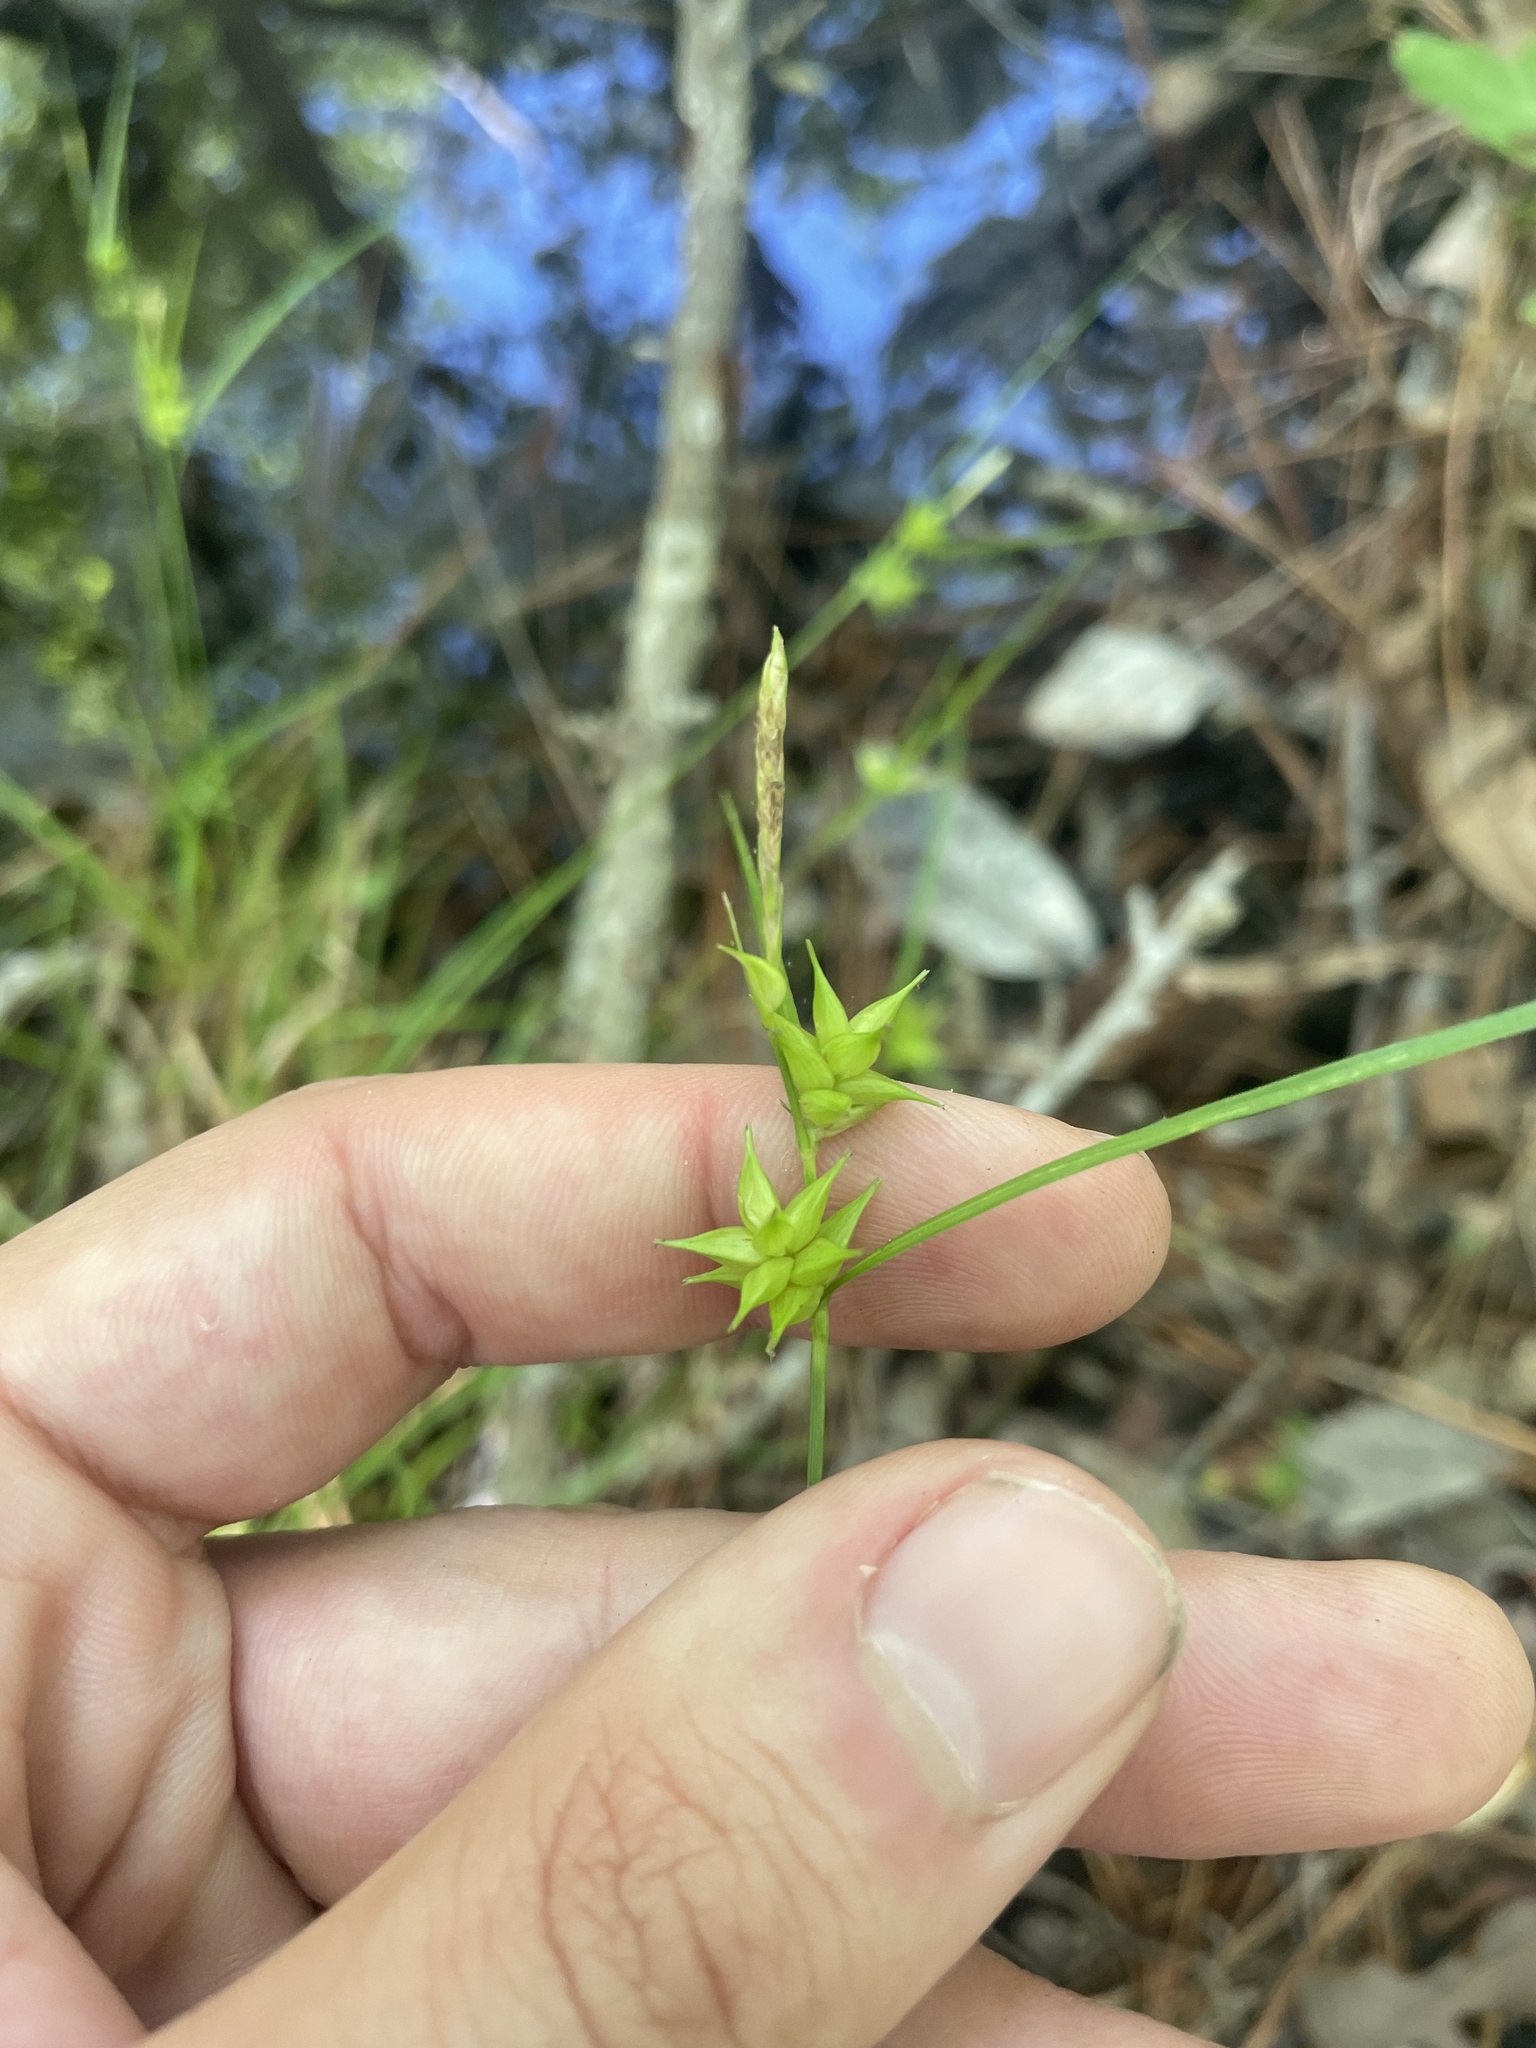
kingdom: Plantae
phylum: Tracheophyta
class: Liliopsida
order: Poales
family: Cyperaceae
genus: Carex
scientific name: Carex elliottii
